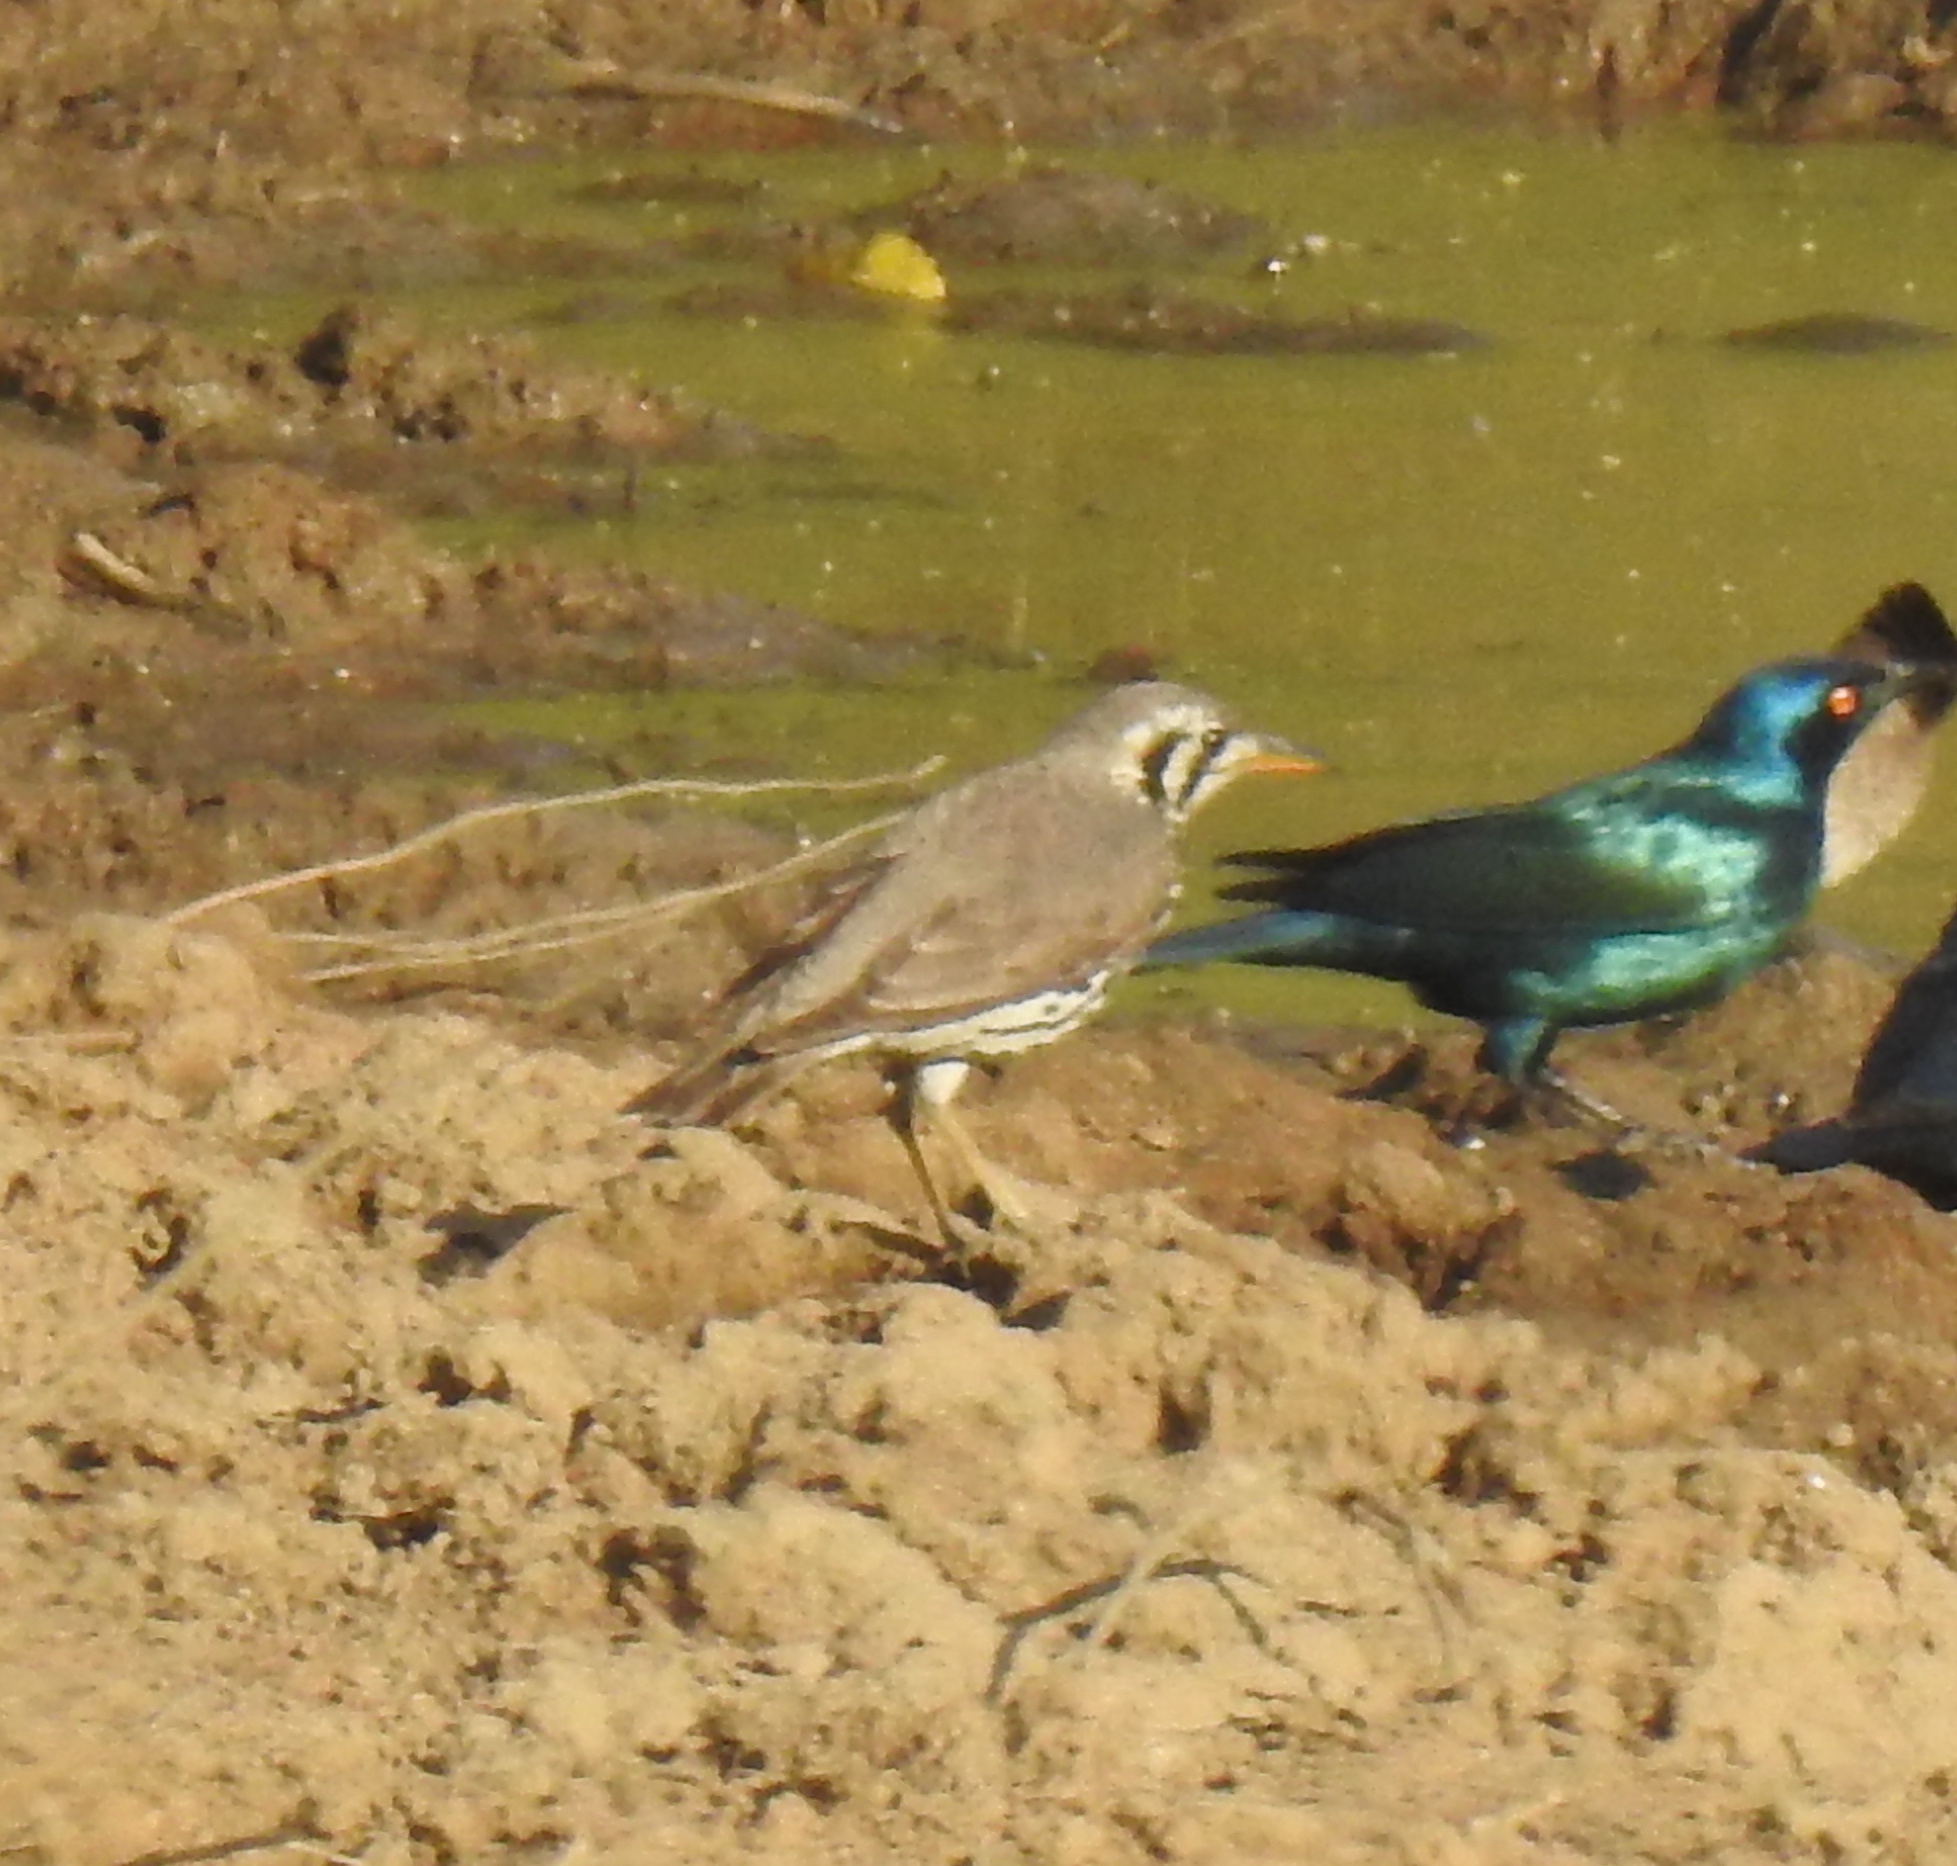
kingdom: Animalia
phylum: Chordata
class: Aves
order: Passeriformes
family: Turdidae
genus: Psophocichla
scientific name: Psophocichla litsitsirupa
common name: Groundscraper thrush
